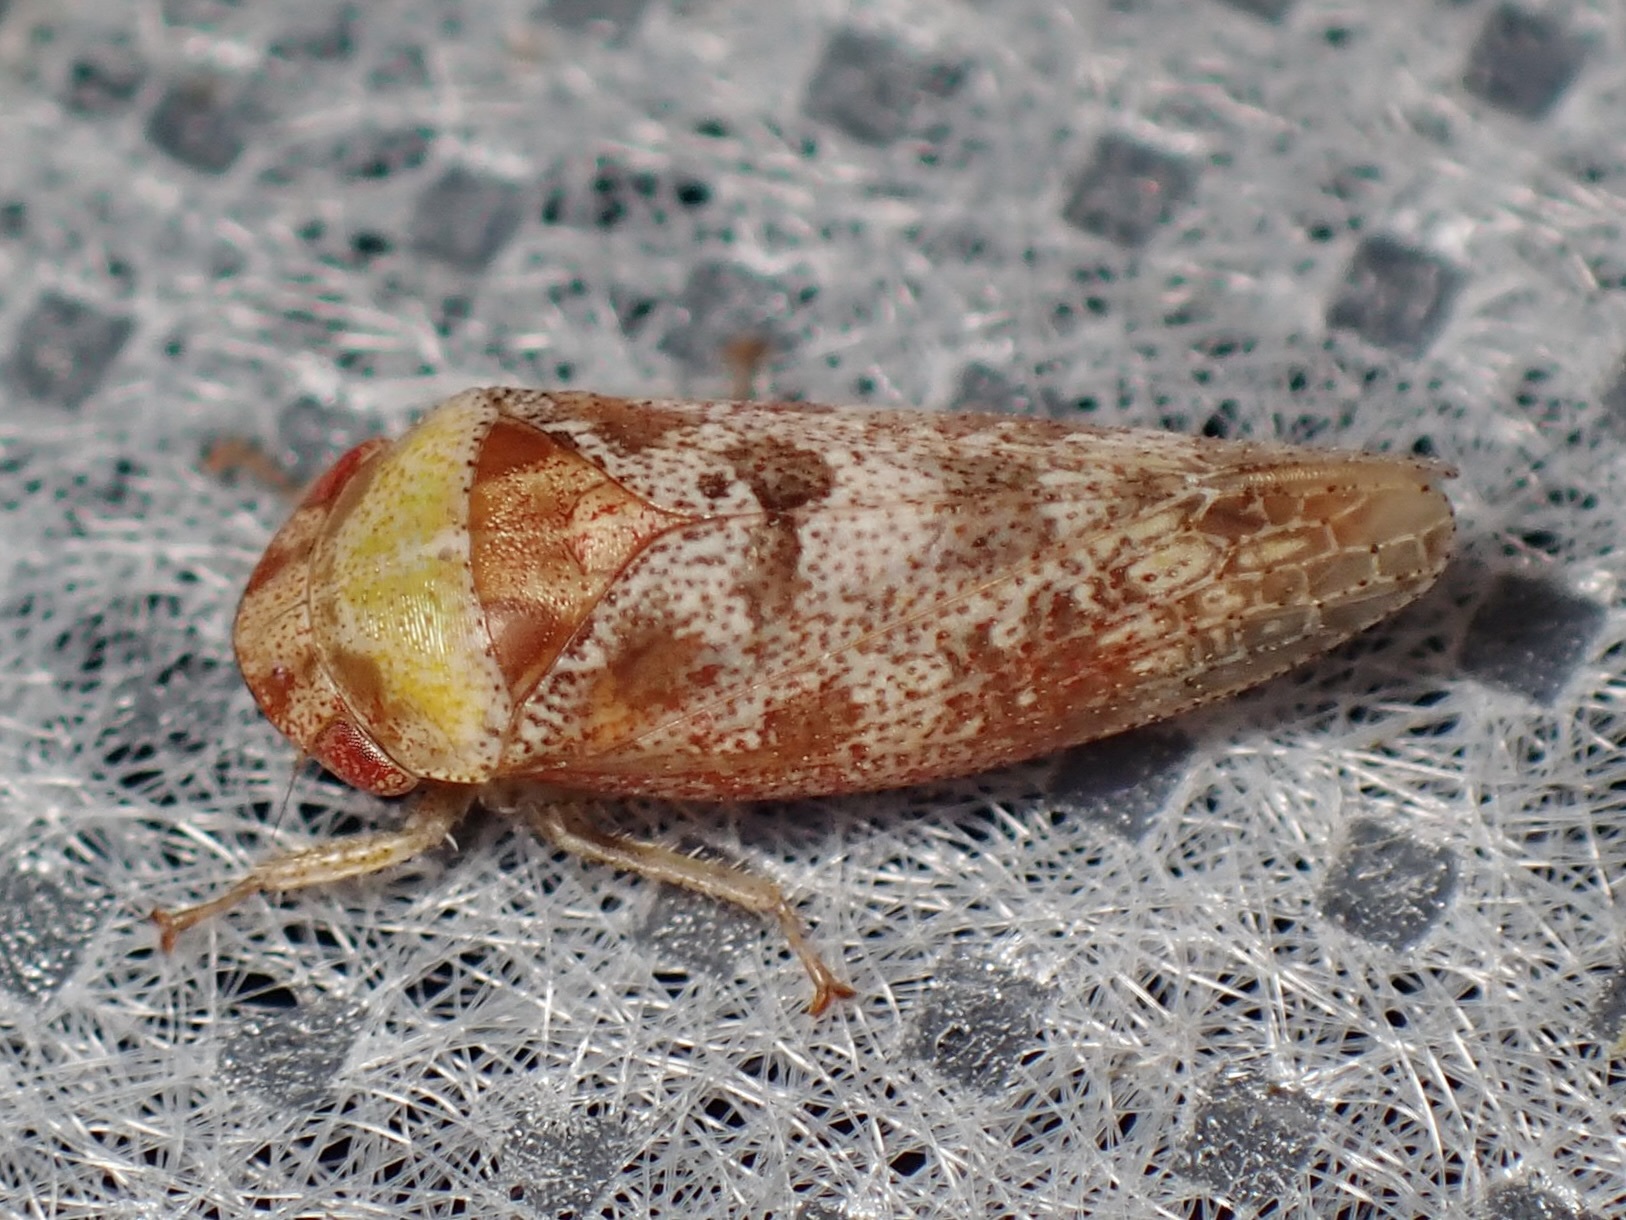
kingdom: Animalia
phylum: Arthropoda
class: Insecta
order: Hemiptera
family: Cicadellidae
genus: Dragonana
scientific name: Dragonana dracontea
